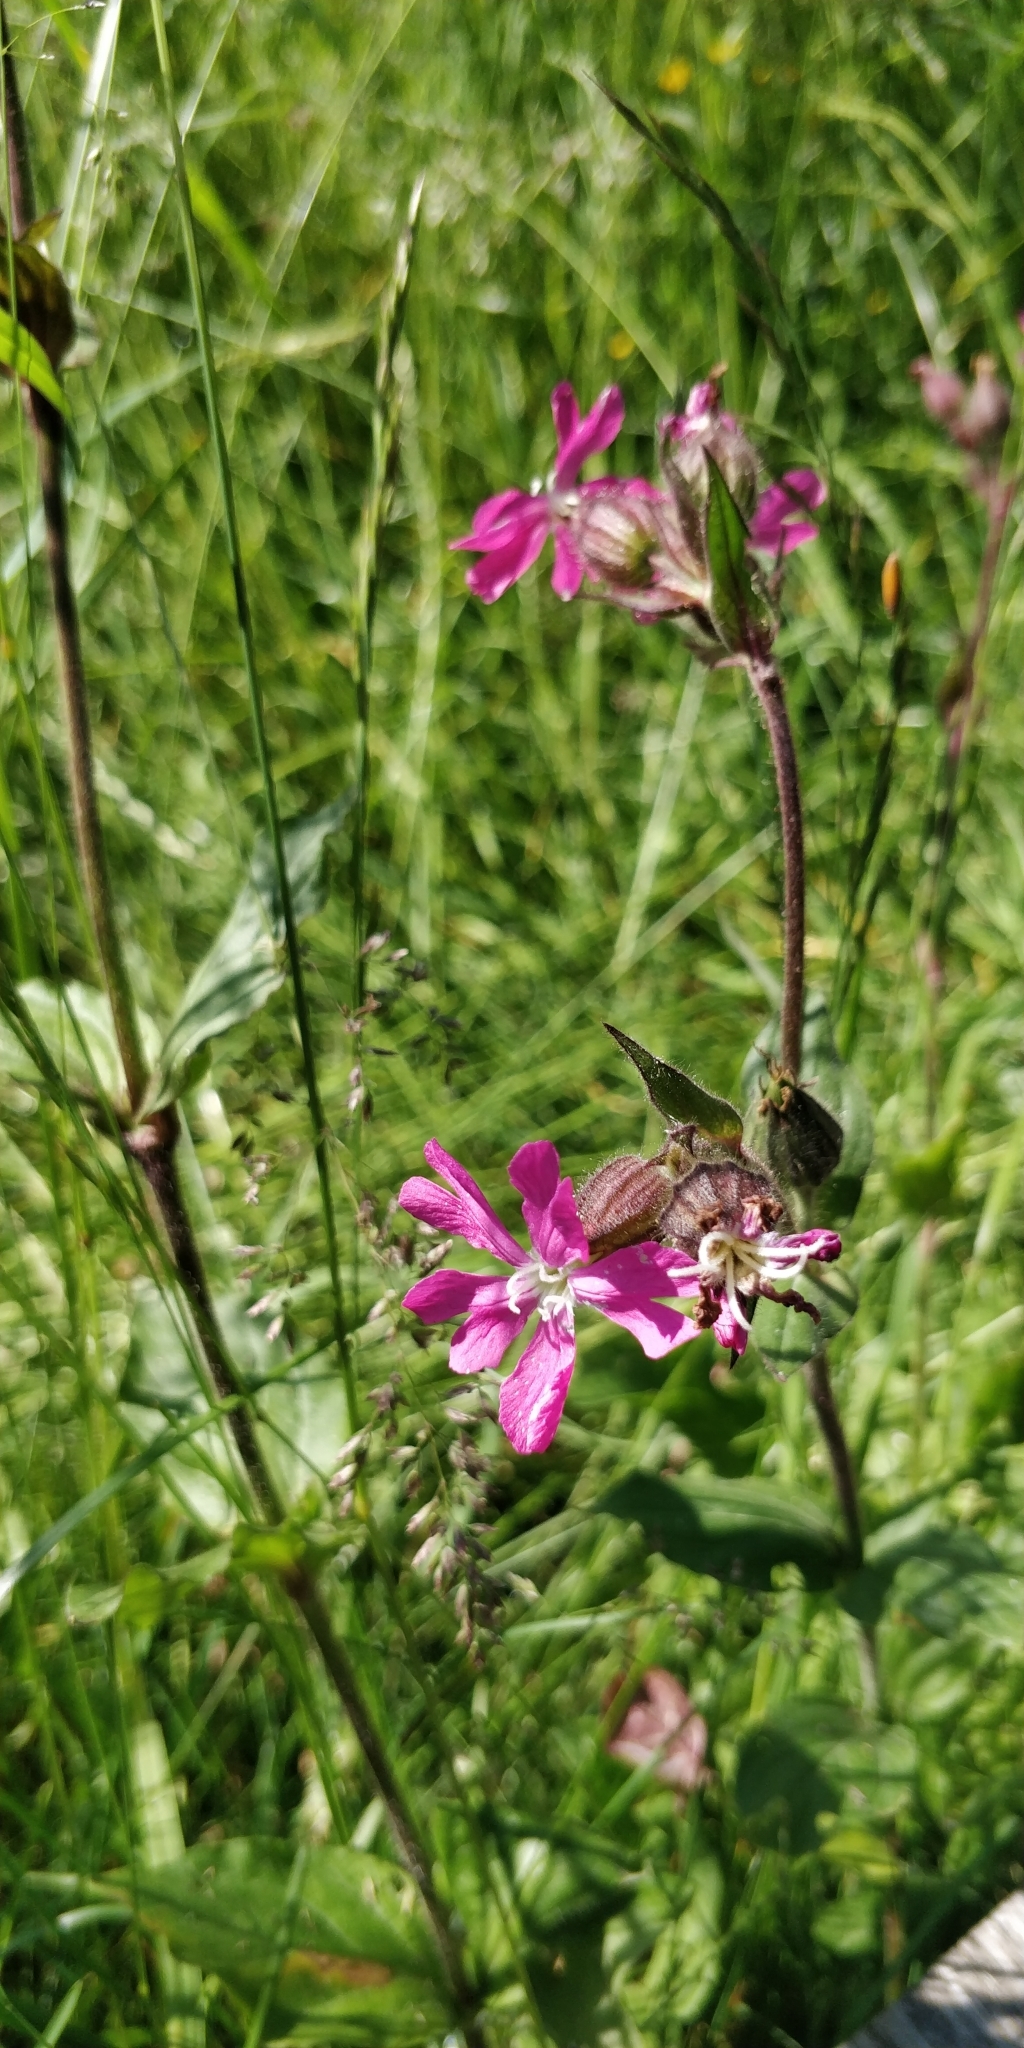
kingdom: Plantae
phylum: Tracheophyta
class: Magnoliopsida
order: Caryophyllales
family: Caryophyllaceae
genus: Silene
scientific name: Silene dioica
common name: Red campion
